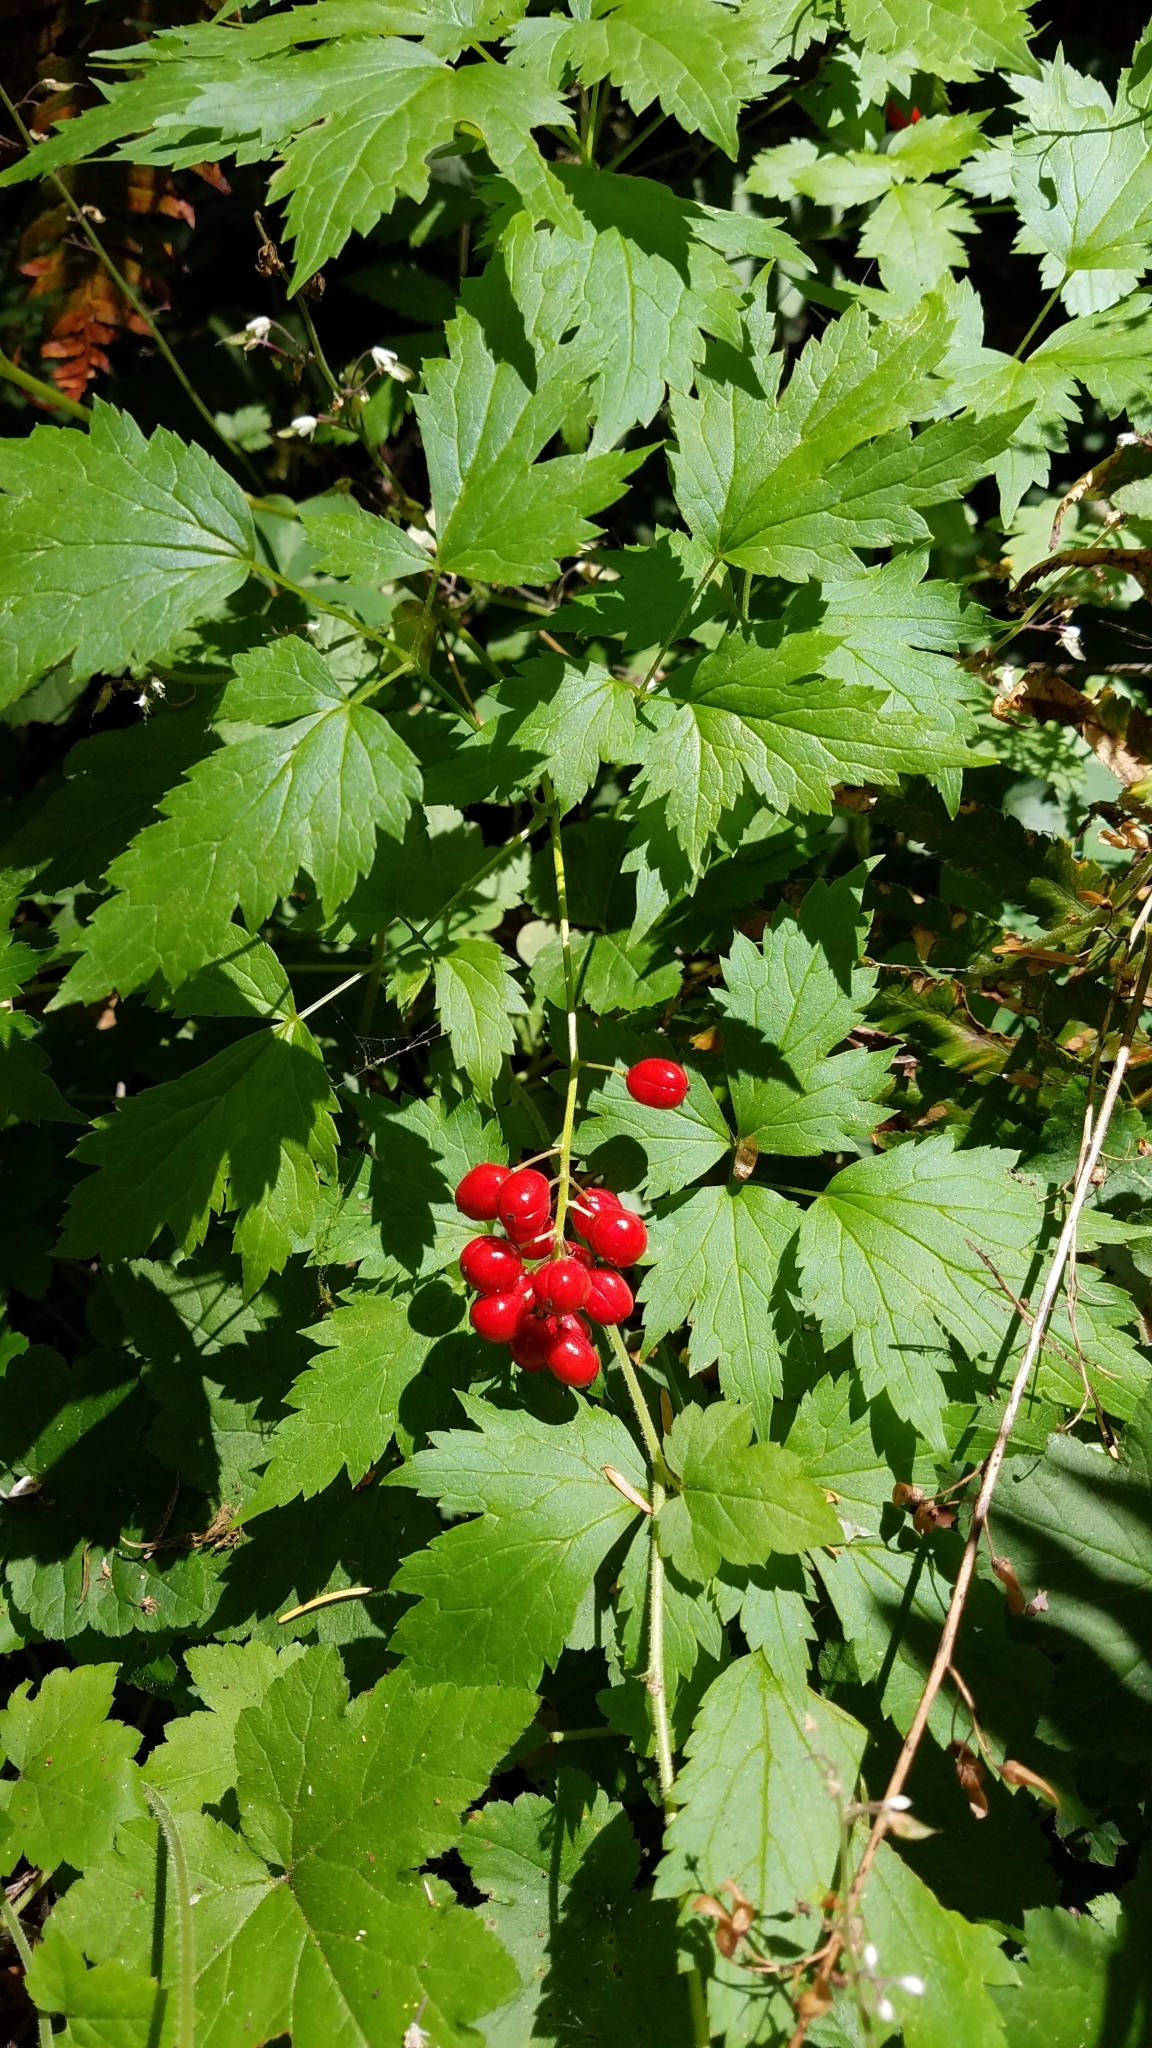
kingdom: Plantae
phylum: Tracheophyta
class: Magnoliopsida
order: Ranunculales
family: Ranunculaceae
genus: Actaea
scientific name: Actaea rubra
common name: Red baneberry
